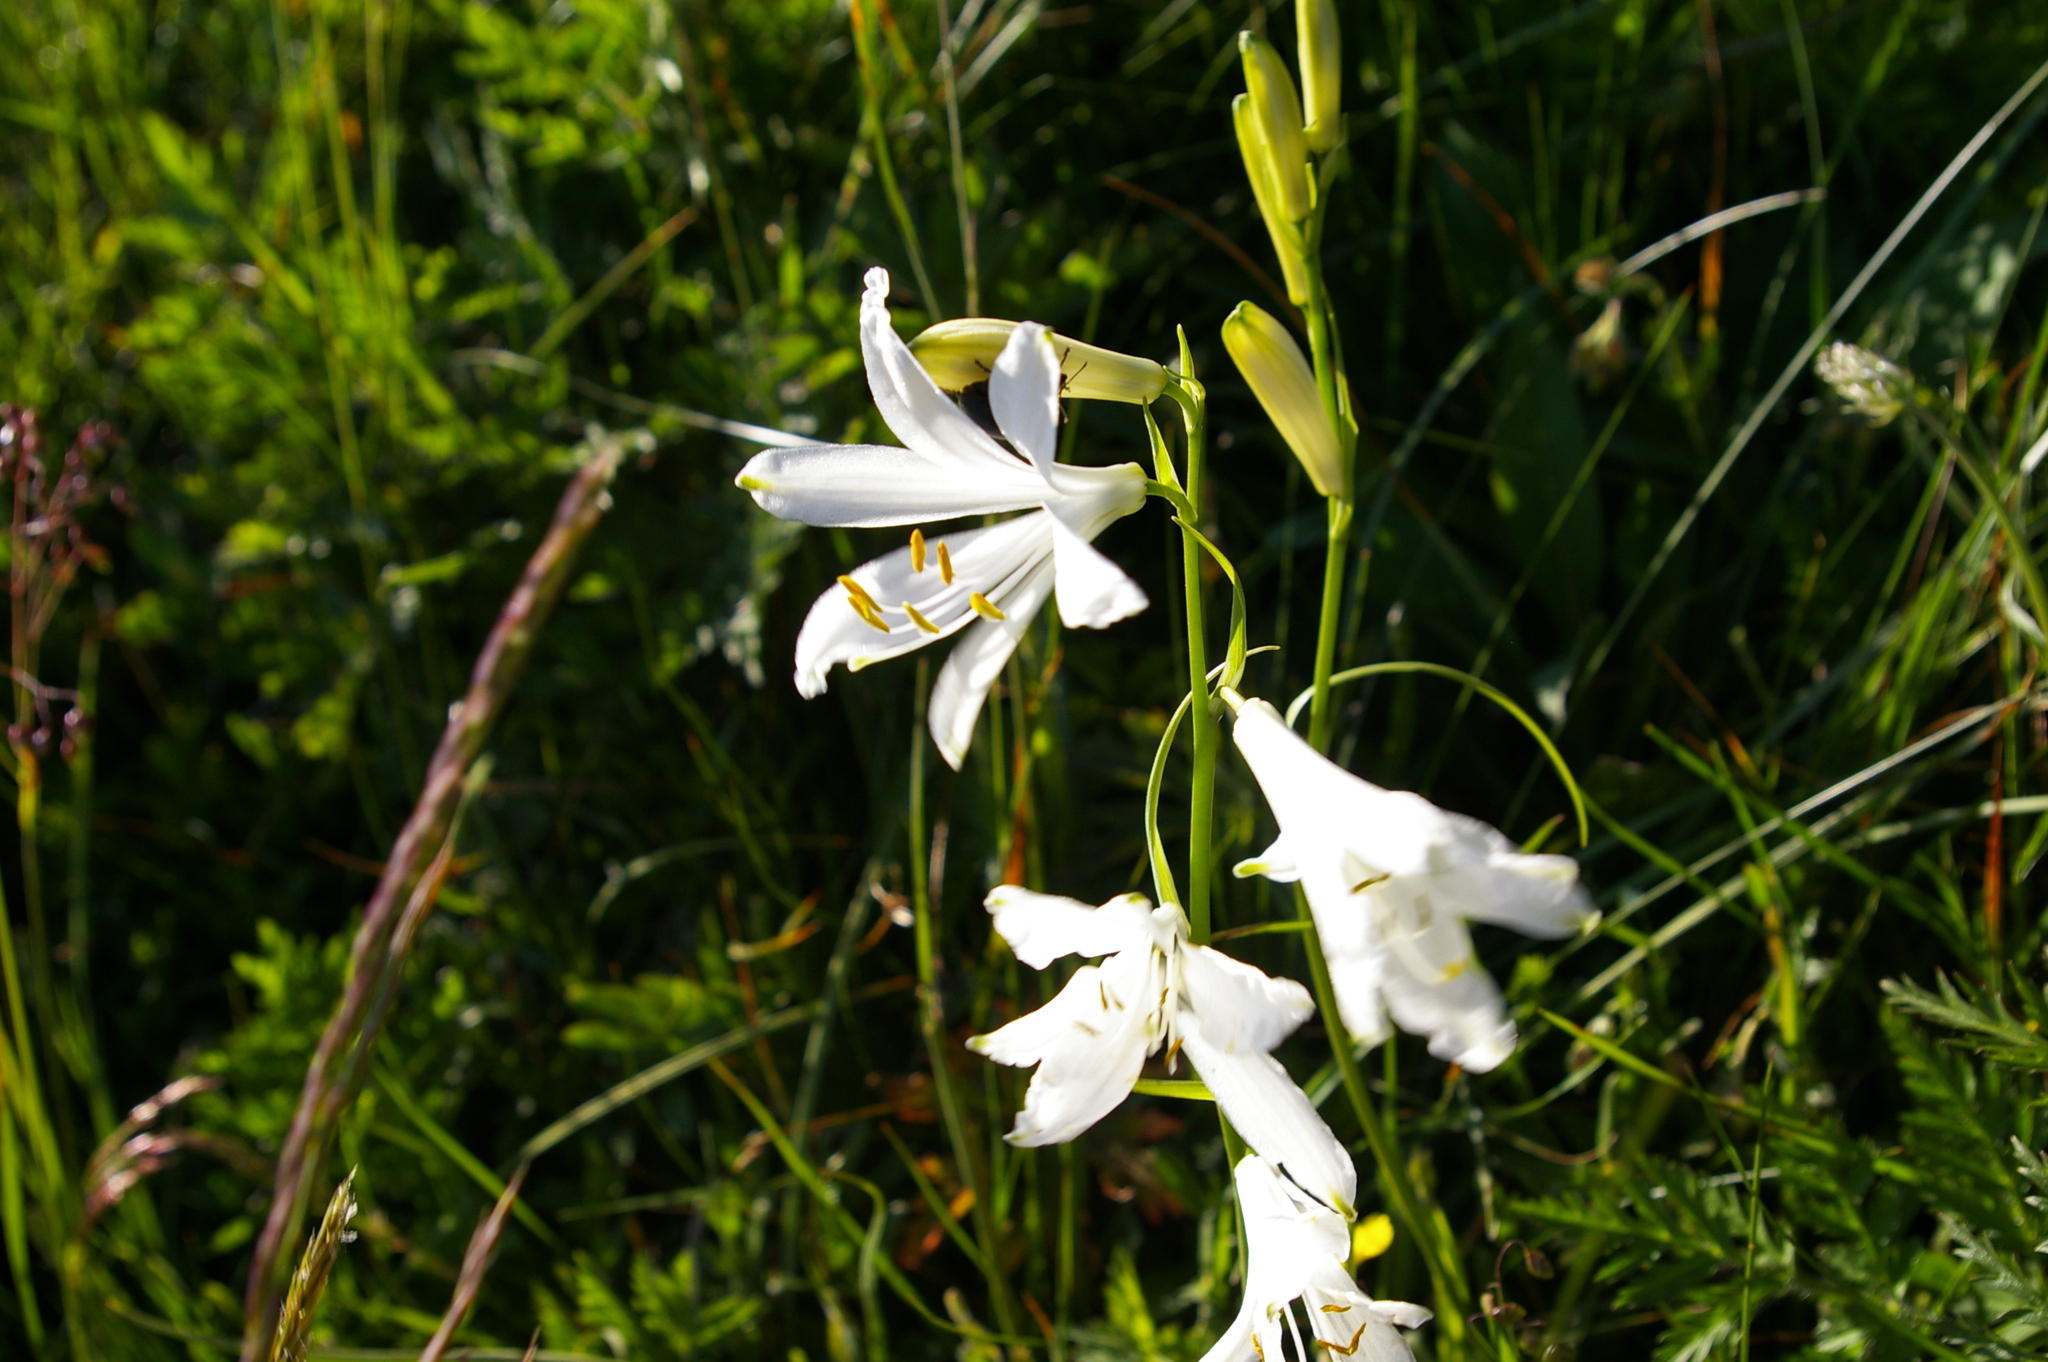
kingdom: Plantae
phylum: Tracheophyta
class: Liliopsida
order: Asparagales
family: Asparagaceae
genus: Paradisea
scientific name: Paradisea liliastrum
